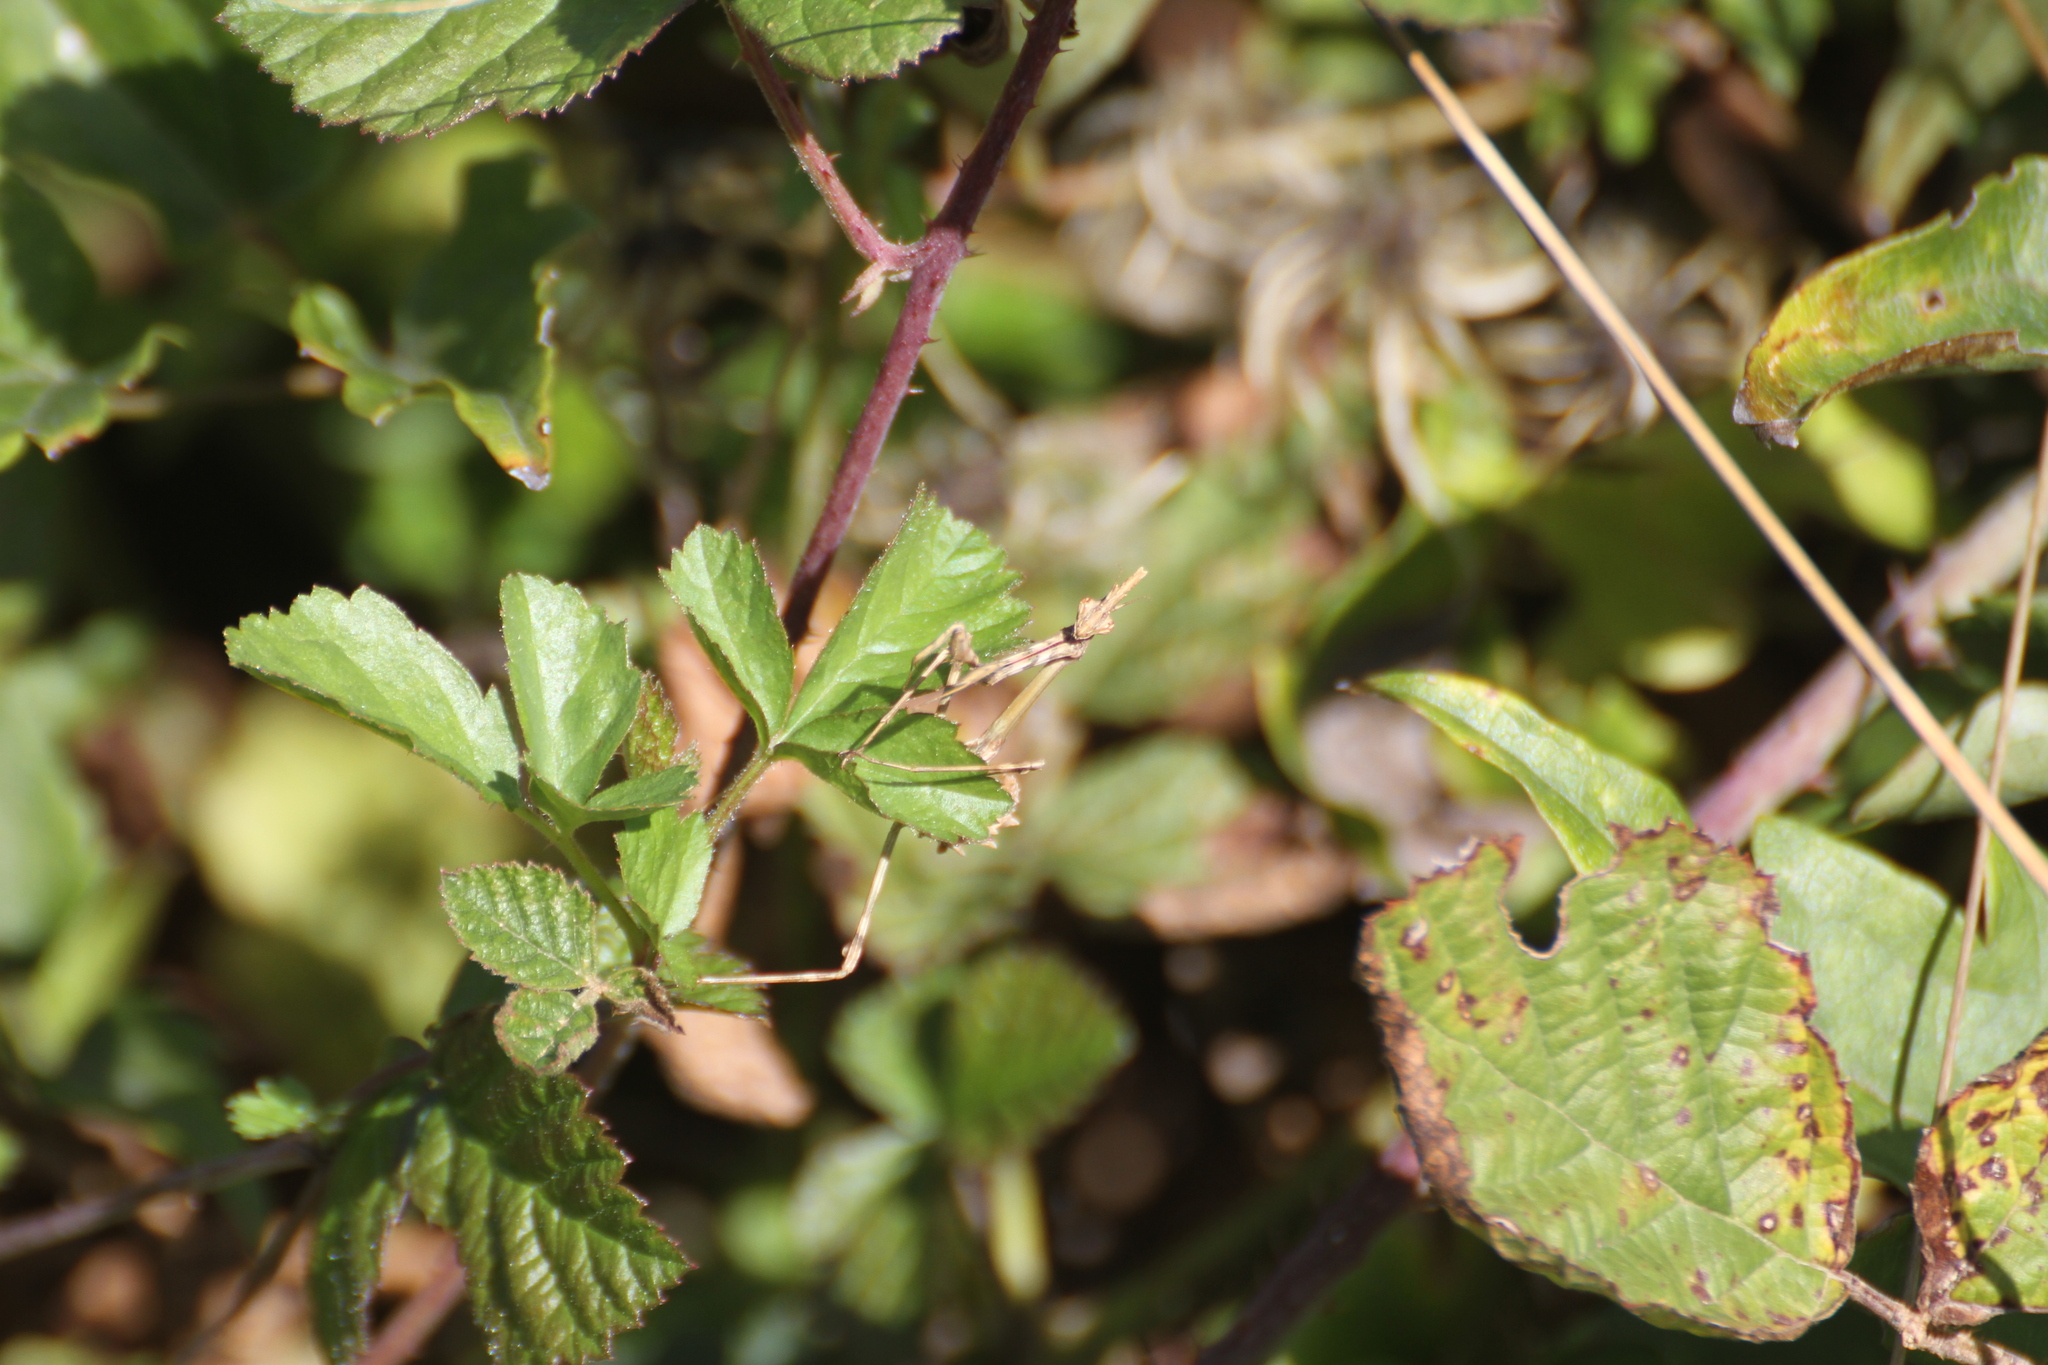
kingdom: Animalia
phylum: Arthropoda
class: Insecta
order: Mantodea
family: Empusidae
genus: Empusa
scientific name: Empusa pennata
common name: Conehead mantis
